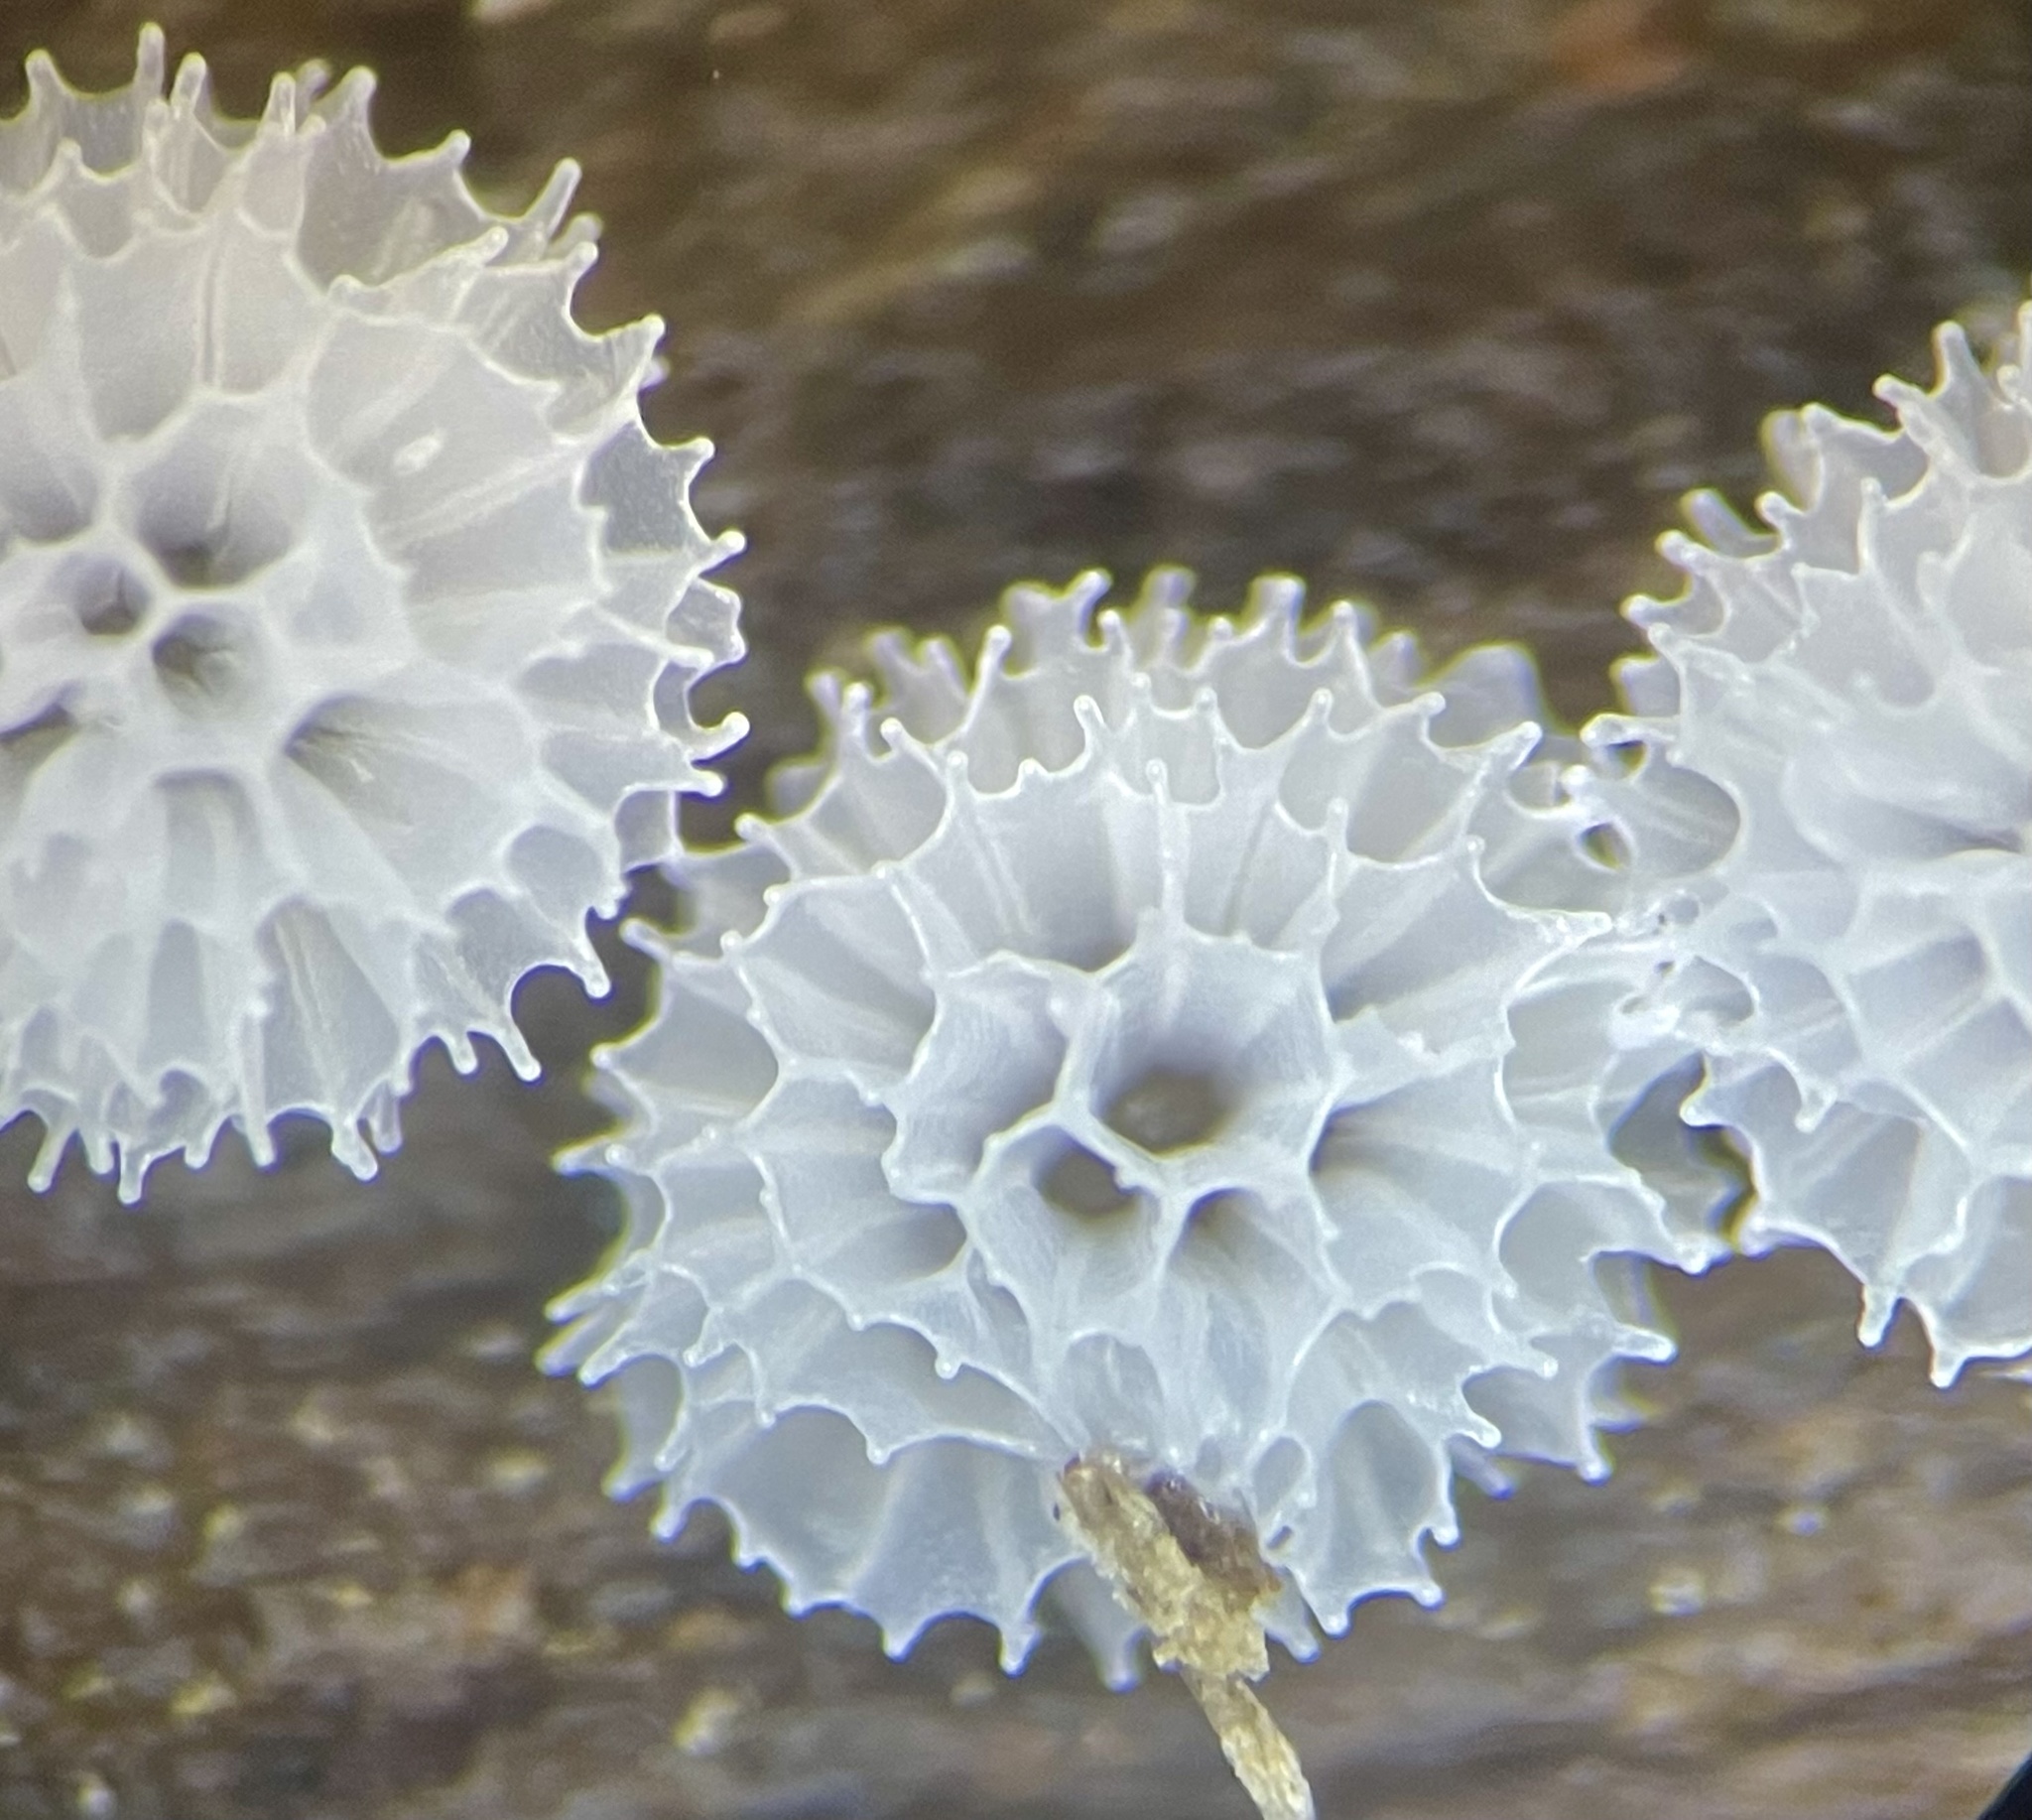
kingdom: Protozoa
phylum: Mycetozoa
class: Protosteliomycetes
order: Ceratiomyxales
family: Ceratiomyxaceae
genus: Ceratiomyxa
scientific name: Ceratiomyxa fruticulosa
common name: Honeycomb coral slime mold
